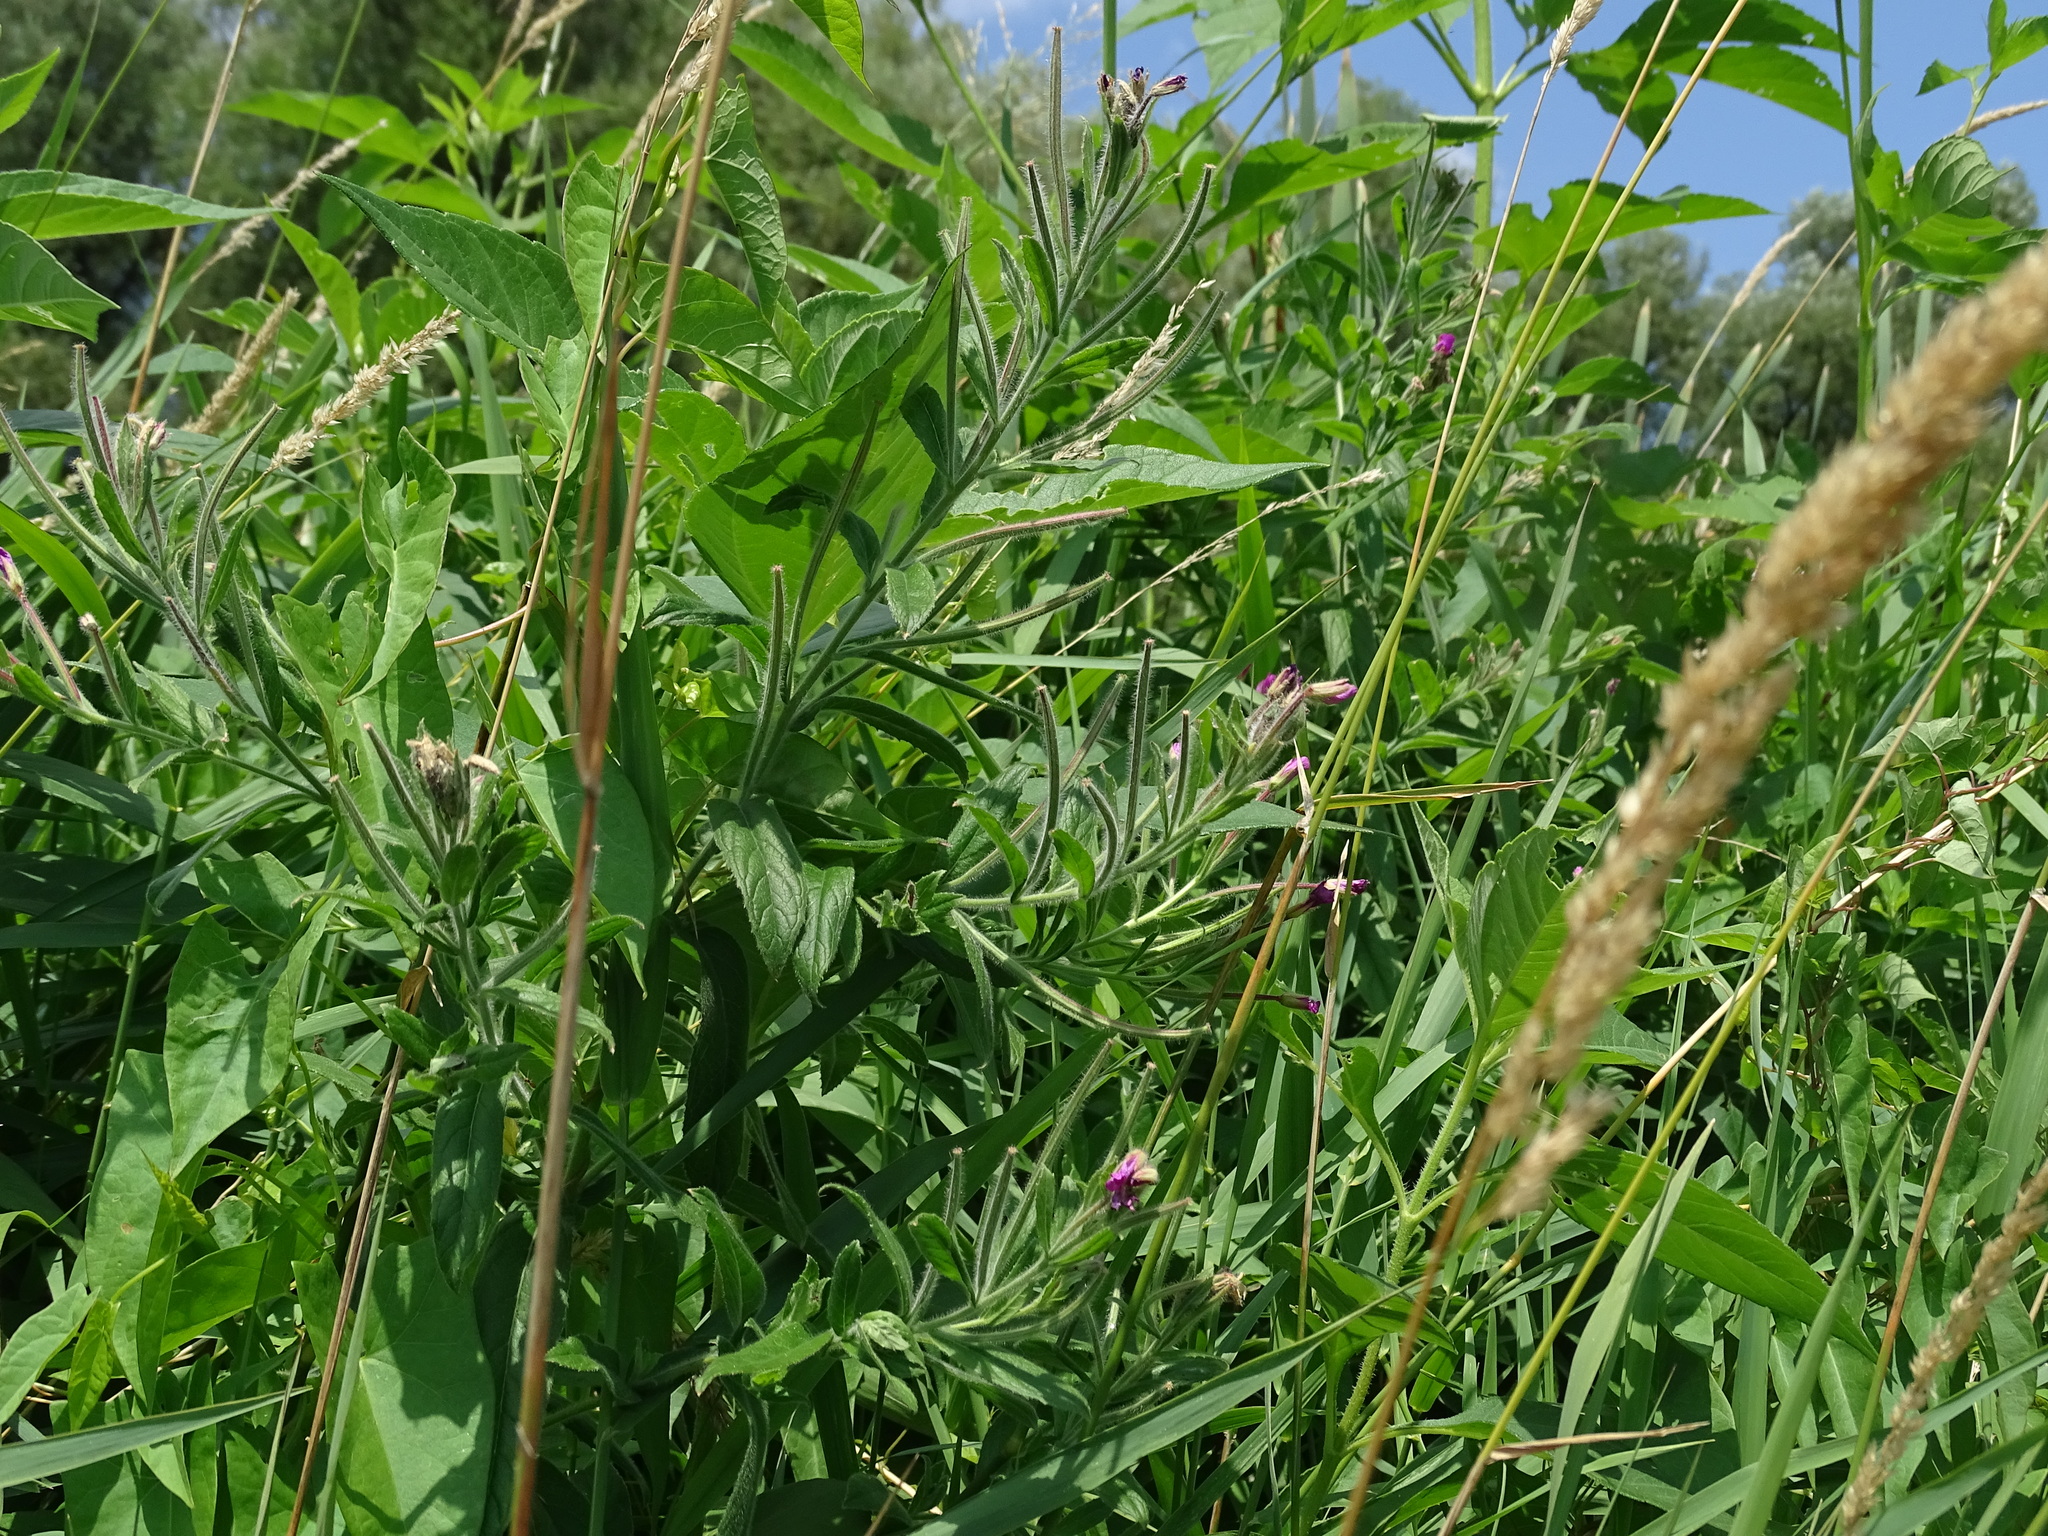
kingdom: Plantae
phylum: Tracheophyta
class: Magnoliopsida
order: Myrtales
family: Onagraceae
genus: Epilobium
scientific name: Epilobium hirsutum
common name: Great willowherb
